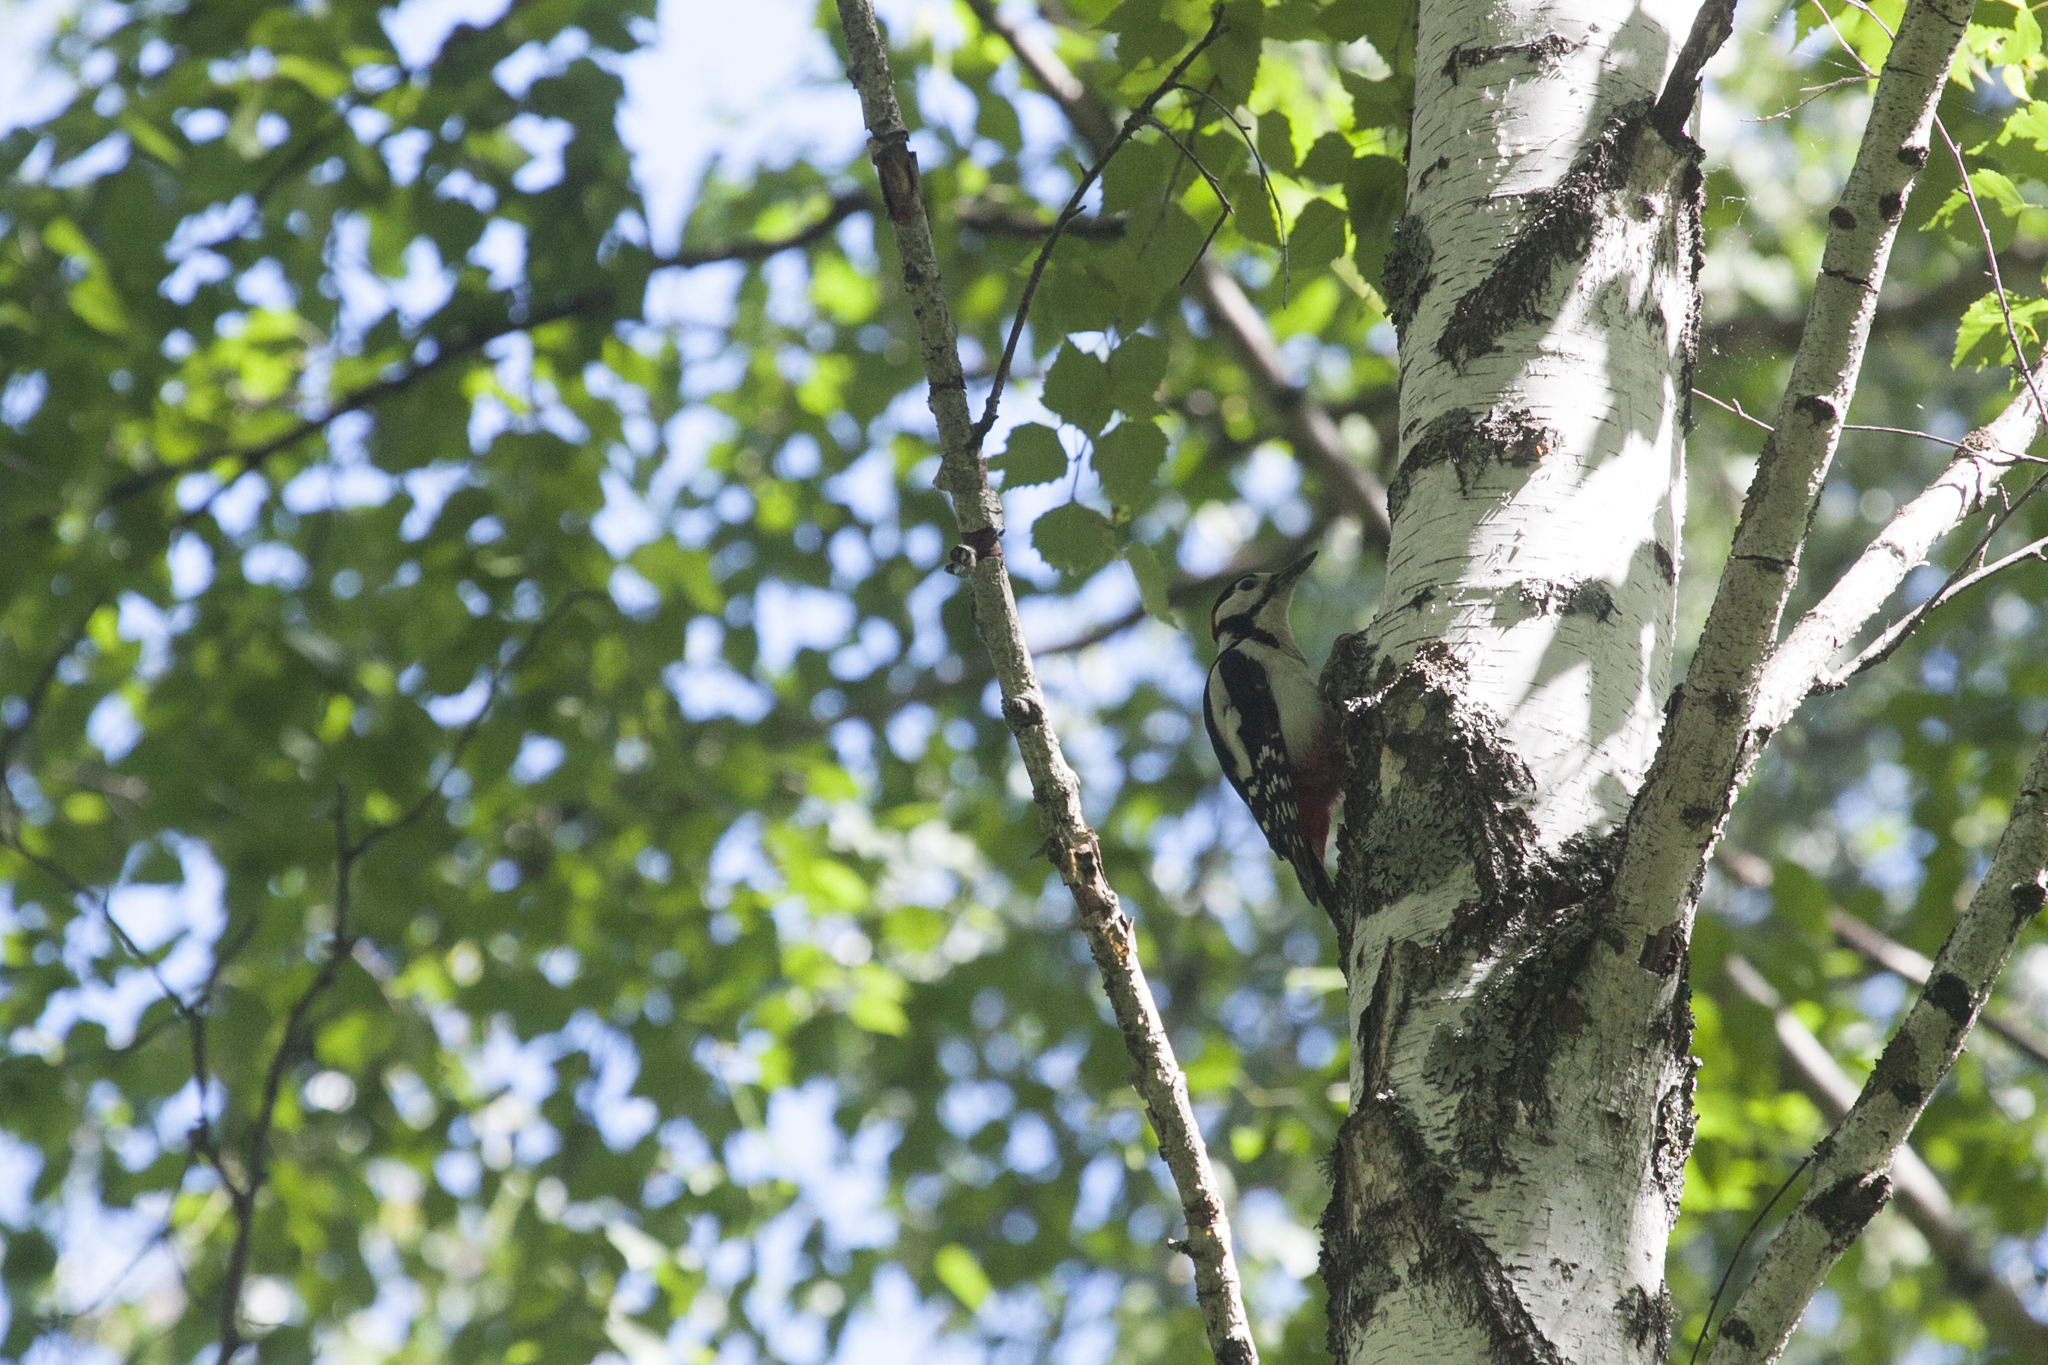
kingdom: Animalia
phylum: Chordata
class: Aves
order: Piciformes
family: Picidae
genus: Dendrocopos
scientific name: Dendrocopos major
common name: Great spotted woodpecker
